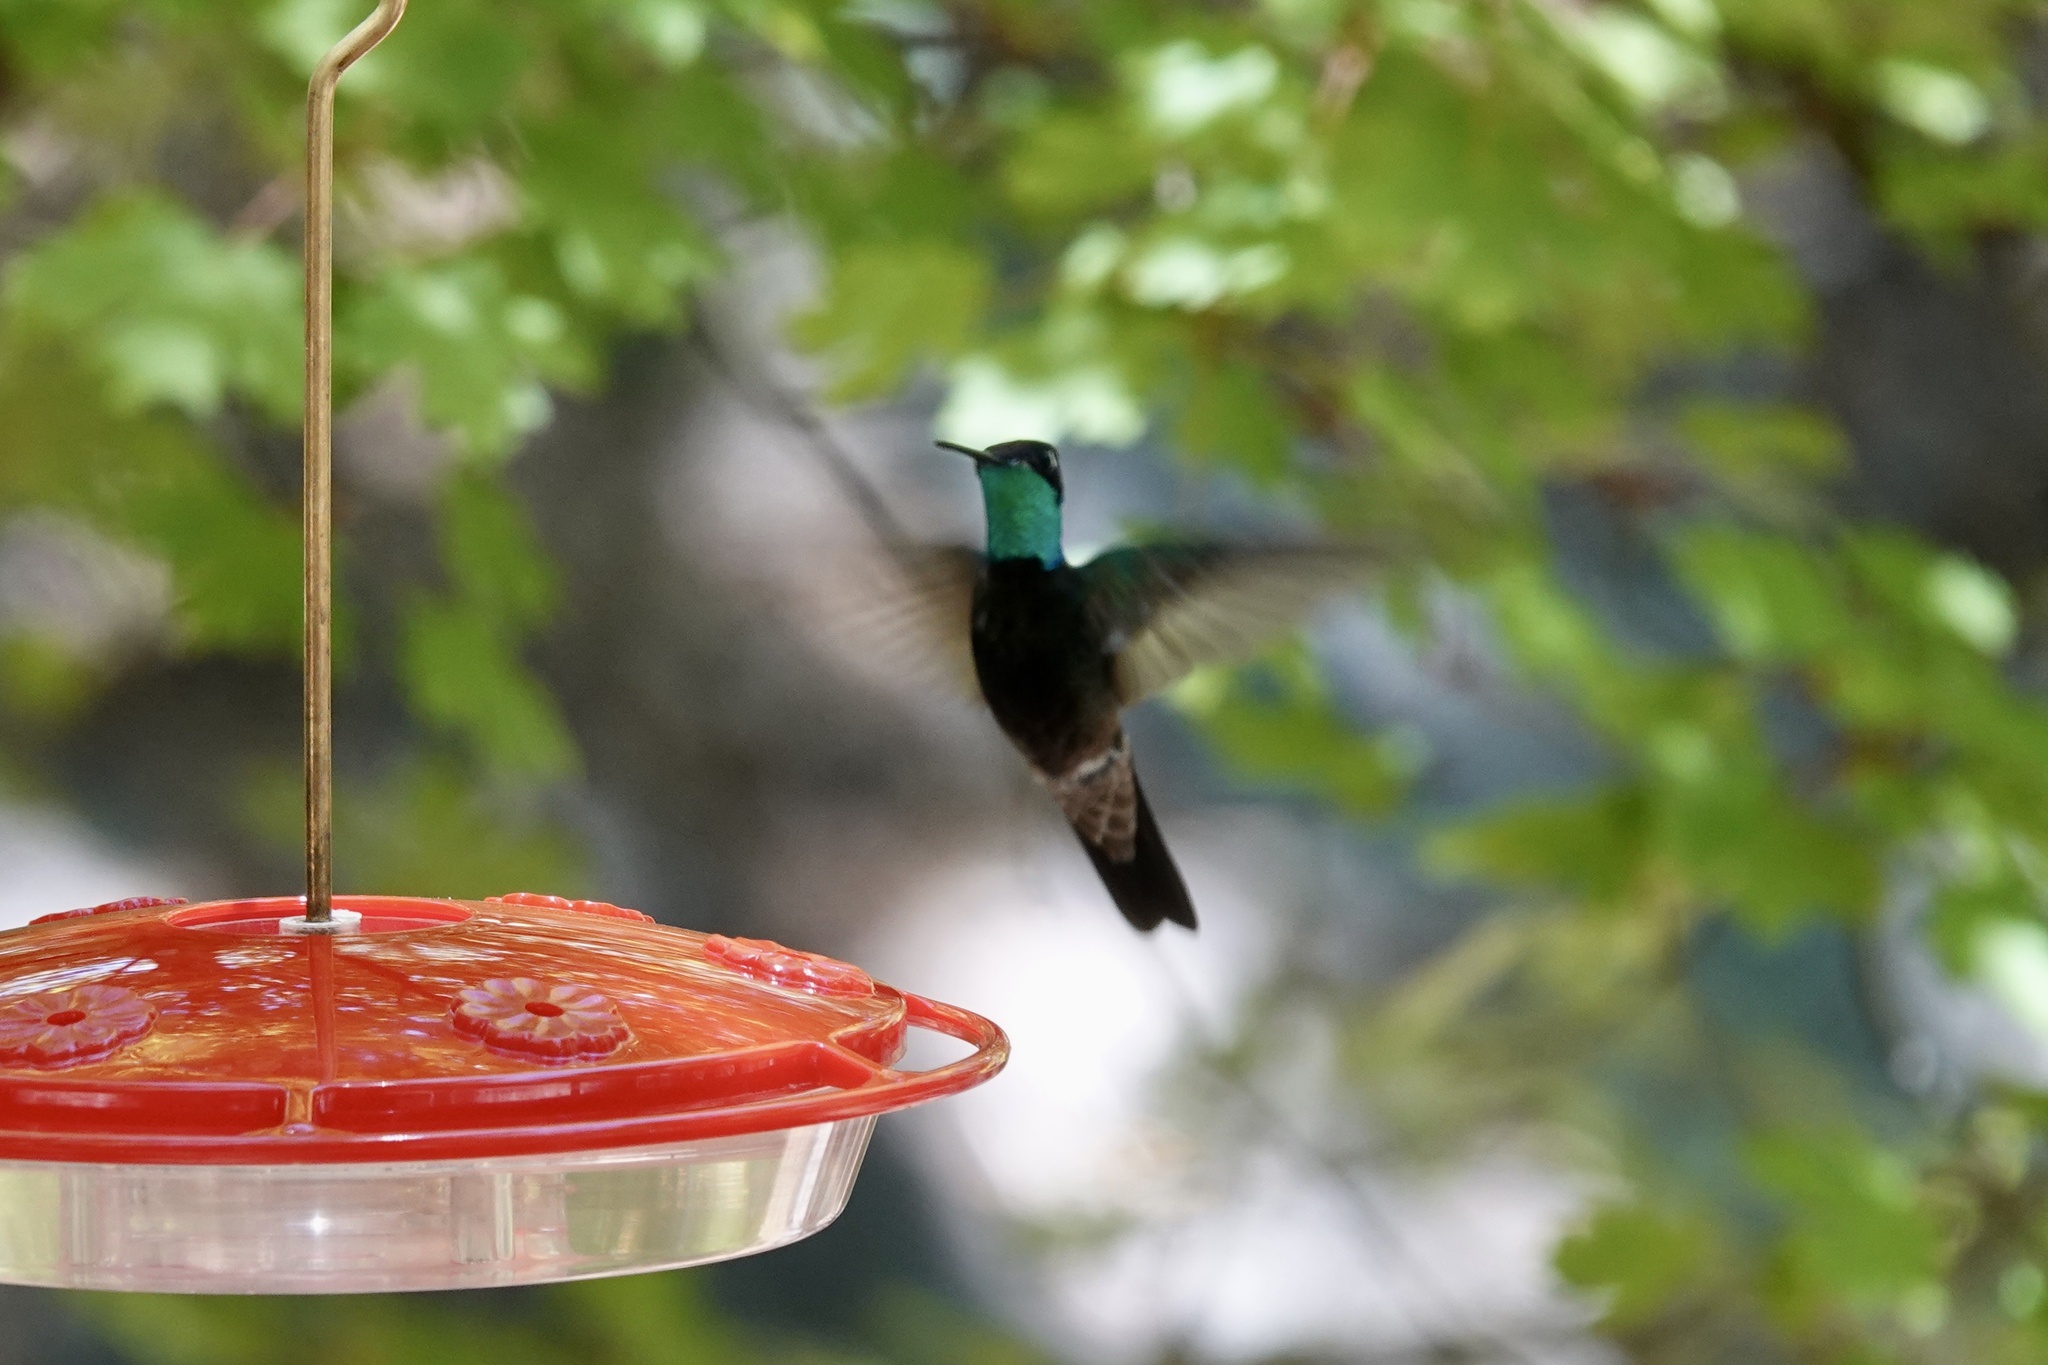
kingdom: Animalia
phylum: Chordata
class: Aves
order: Apodiformes
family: Trochilidae
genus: Eugenes
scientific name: Eugenes fulgens
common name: Magnificent hummingbird
